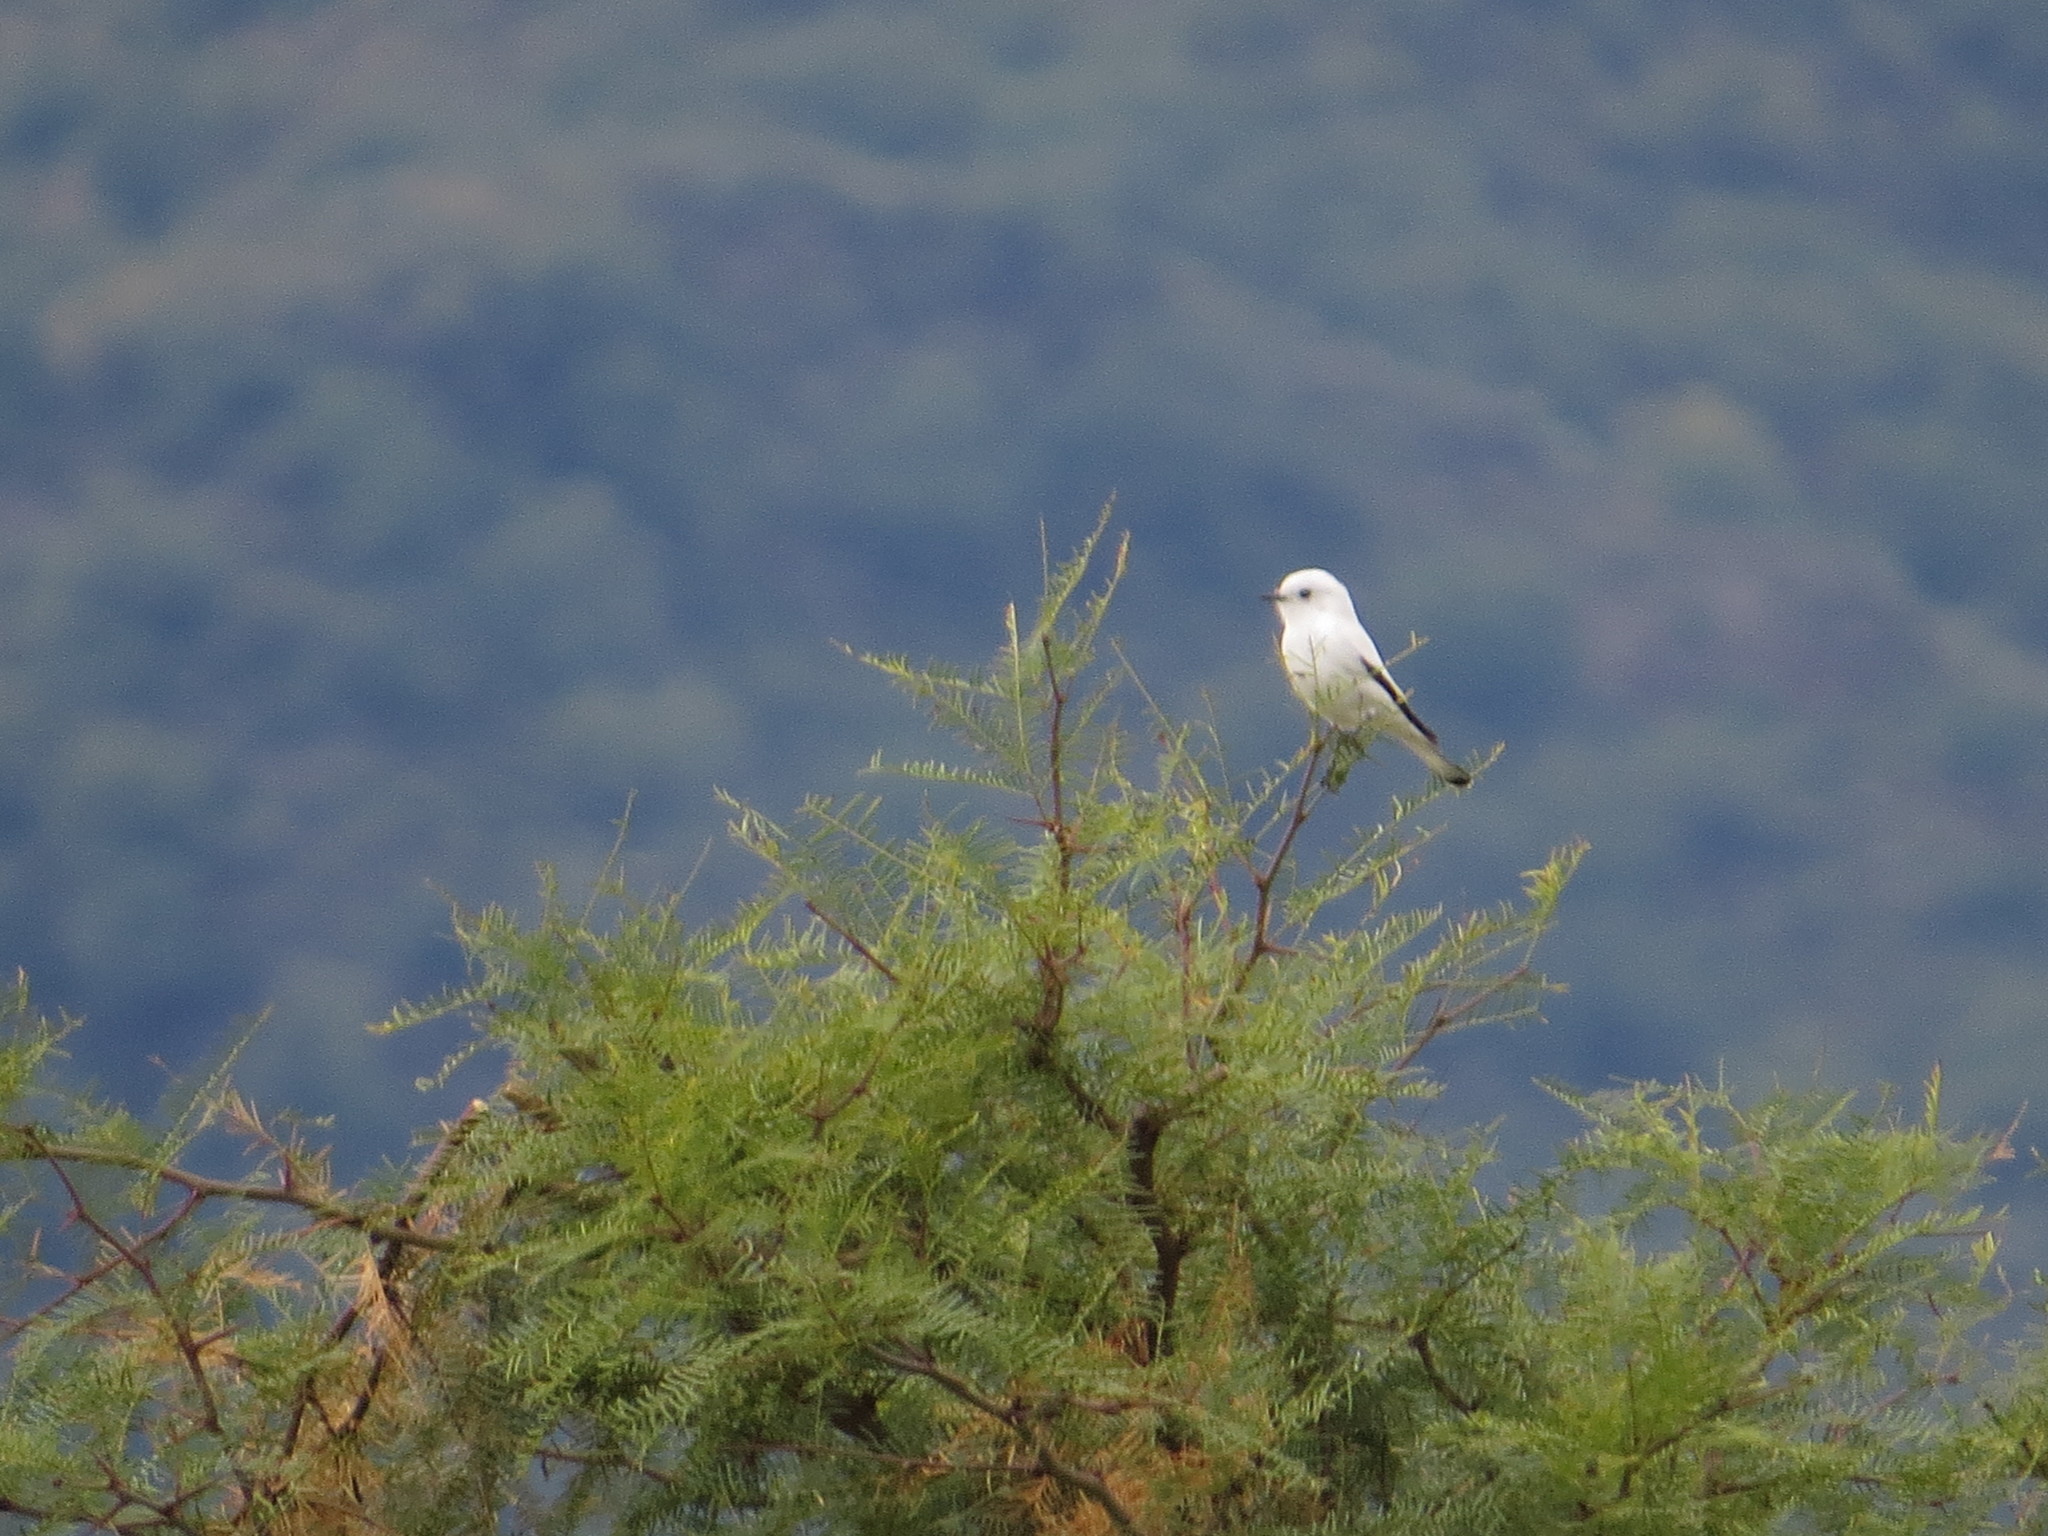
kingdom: Animalia
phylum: Chordata
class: Aves
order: Passeriformes
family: Tyrannidae
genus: Xolmis
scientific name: Xolmis irupero
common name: White monjita
